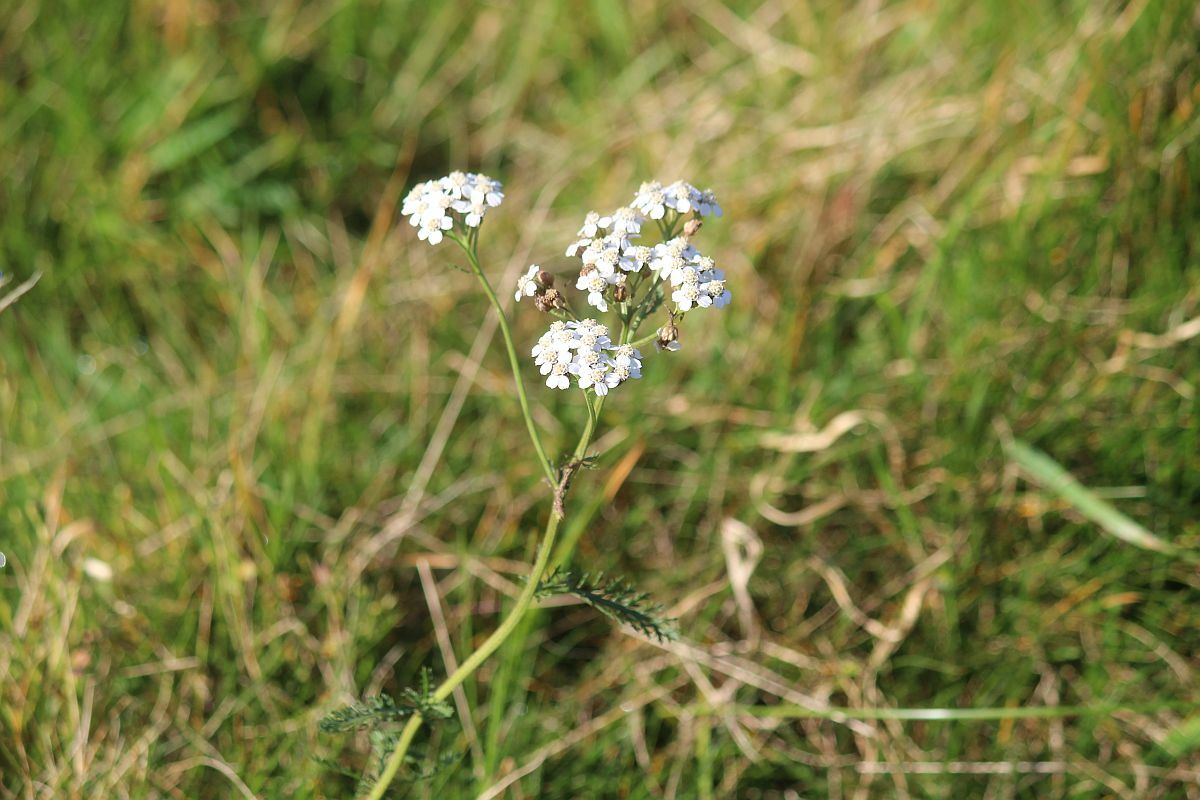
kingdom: Plantae
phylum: Tracheophyta
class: Magnoliopsida
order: Asterales
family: Asteraceae
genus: Achillea
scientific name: Achillea millefolium
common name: Yarrow
